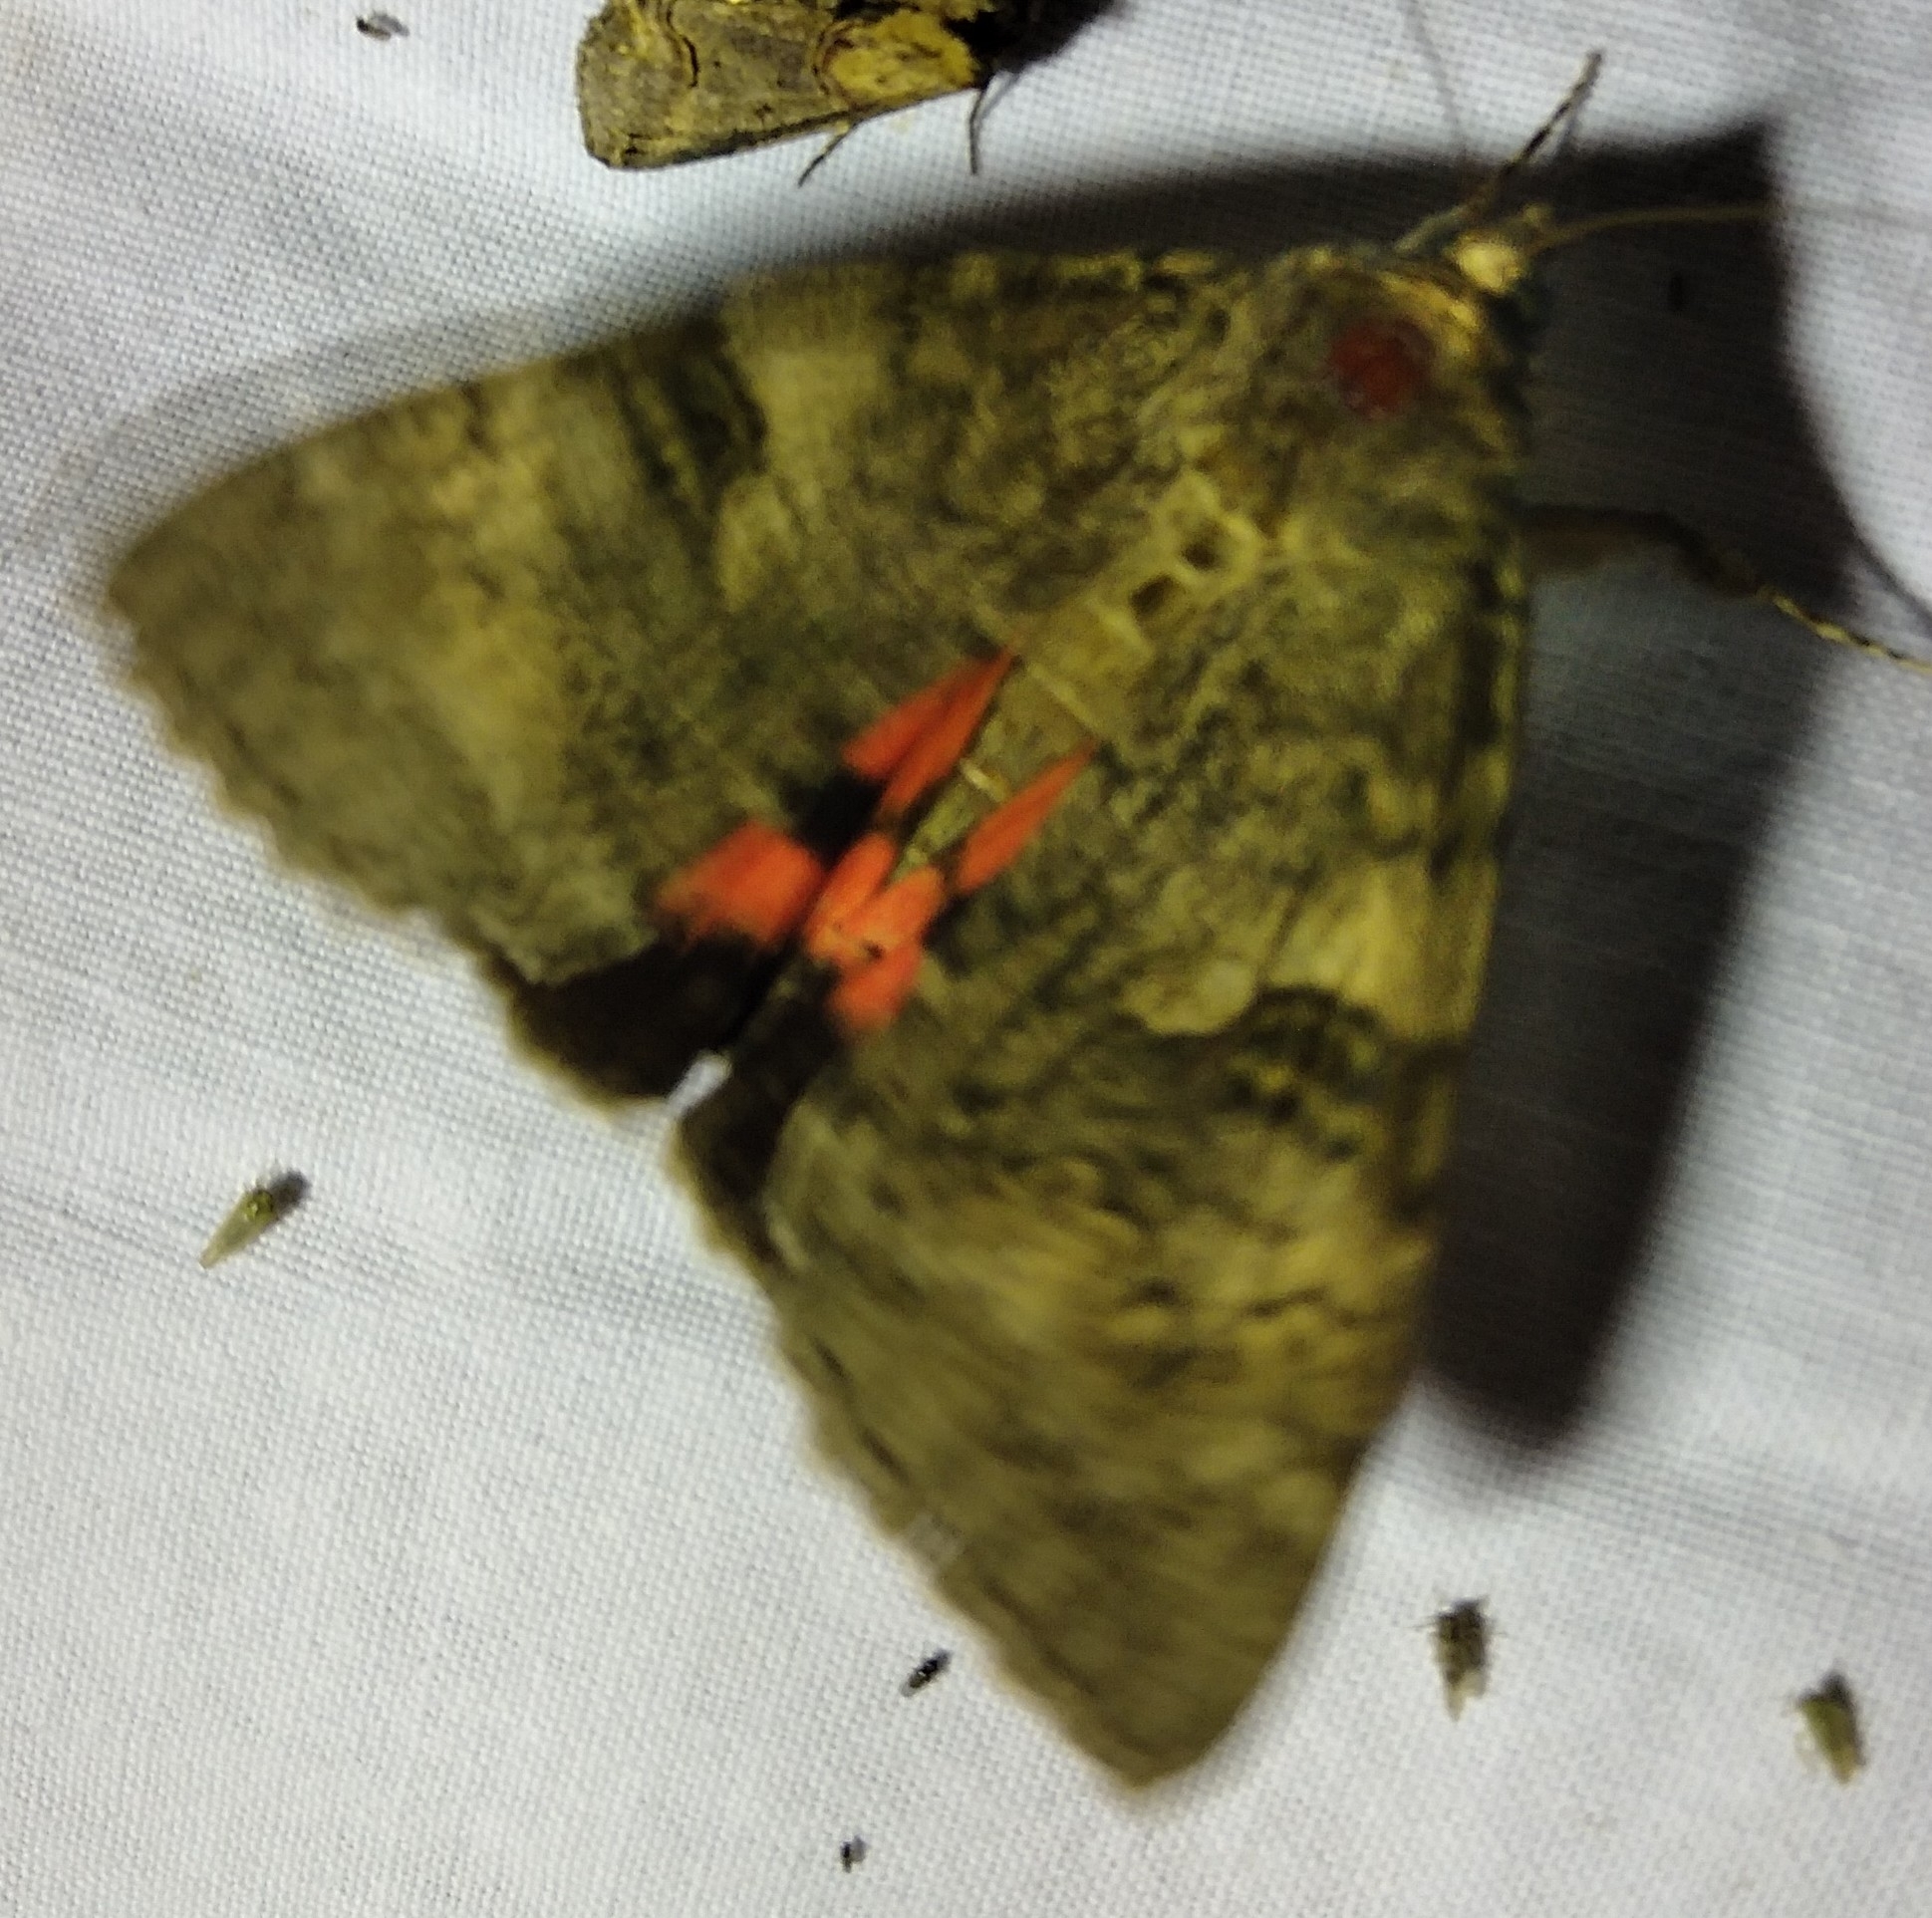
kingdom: Animalia
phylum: Arthropoda
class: Insecta
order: Lepidoptera
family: Erebidae
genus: Catocala
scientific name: Catocala nupta
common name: Red underwing
